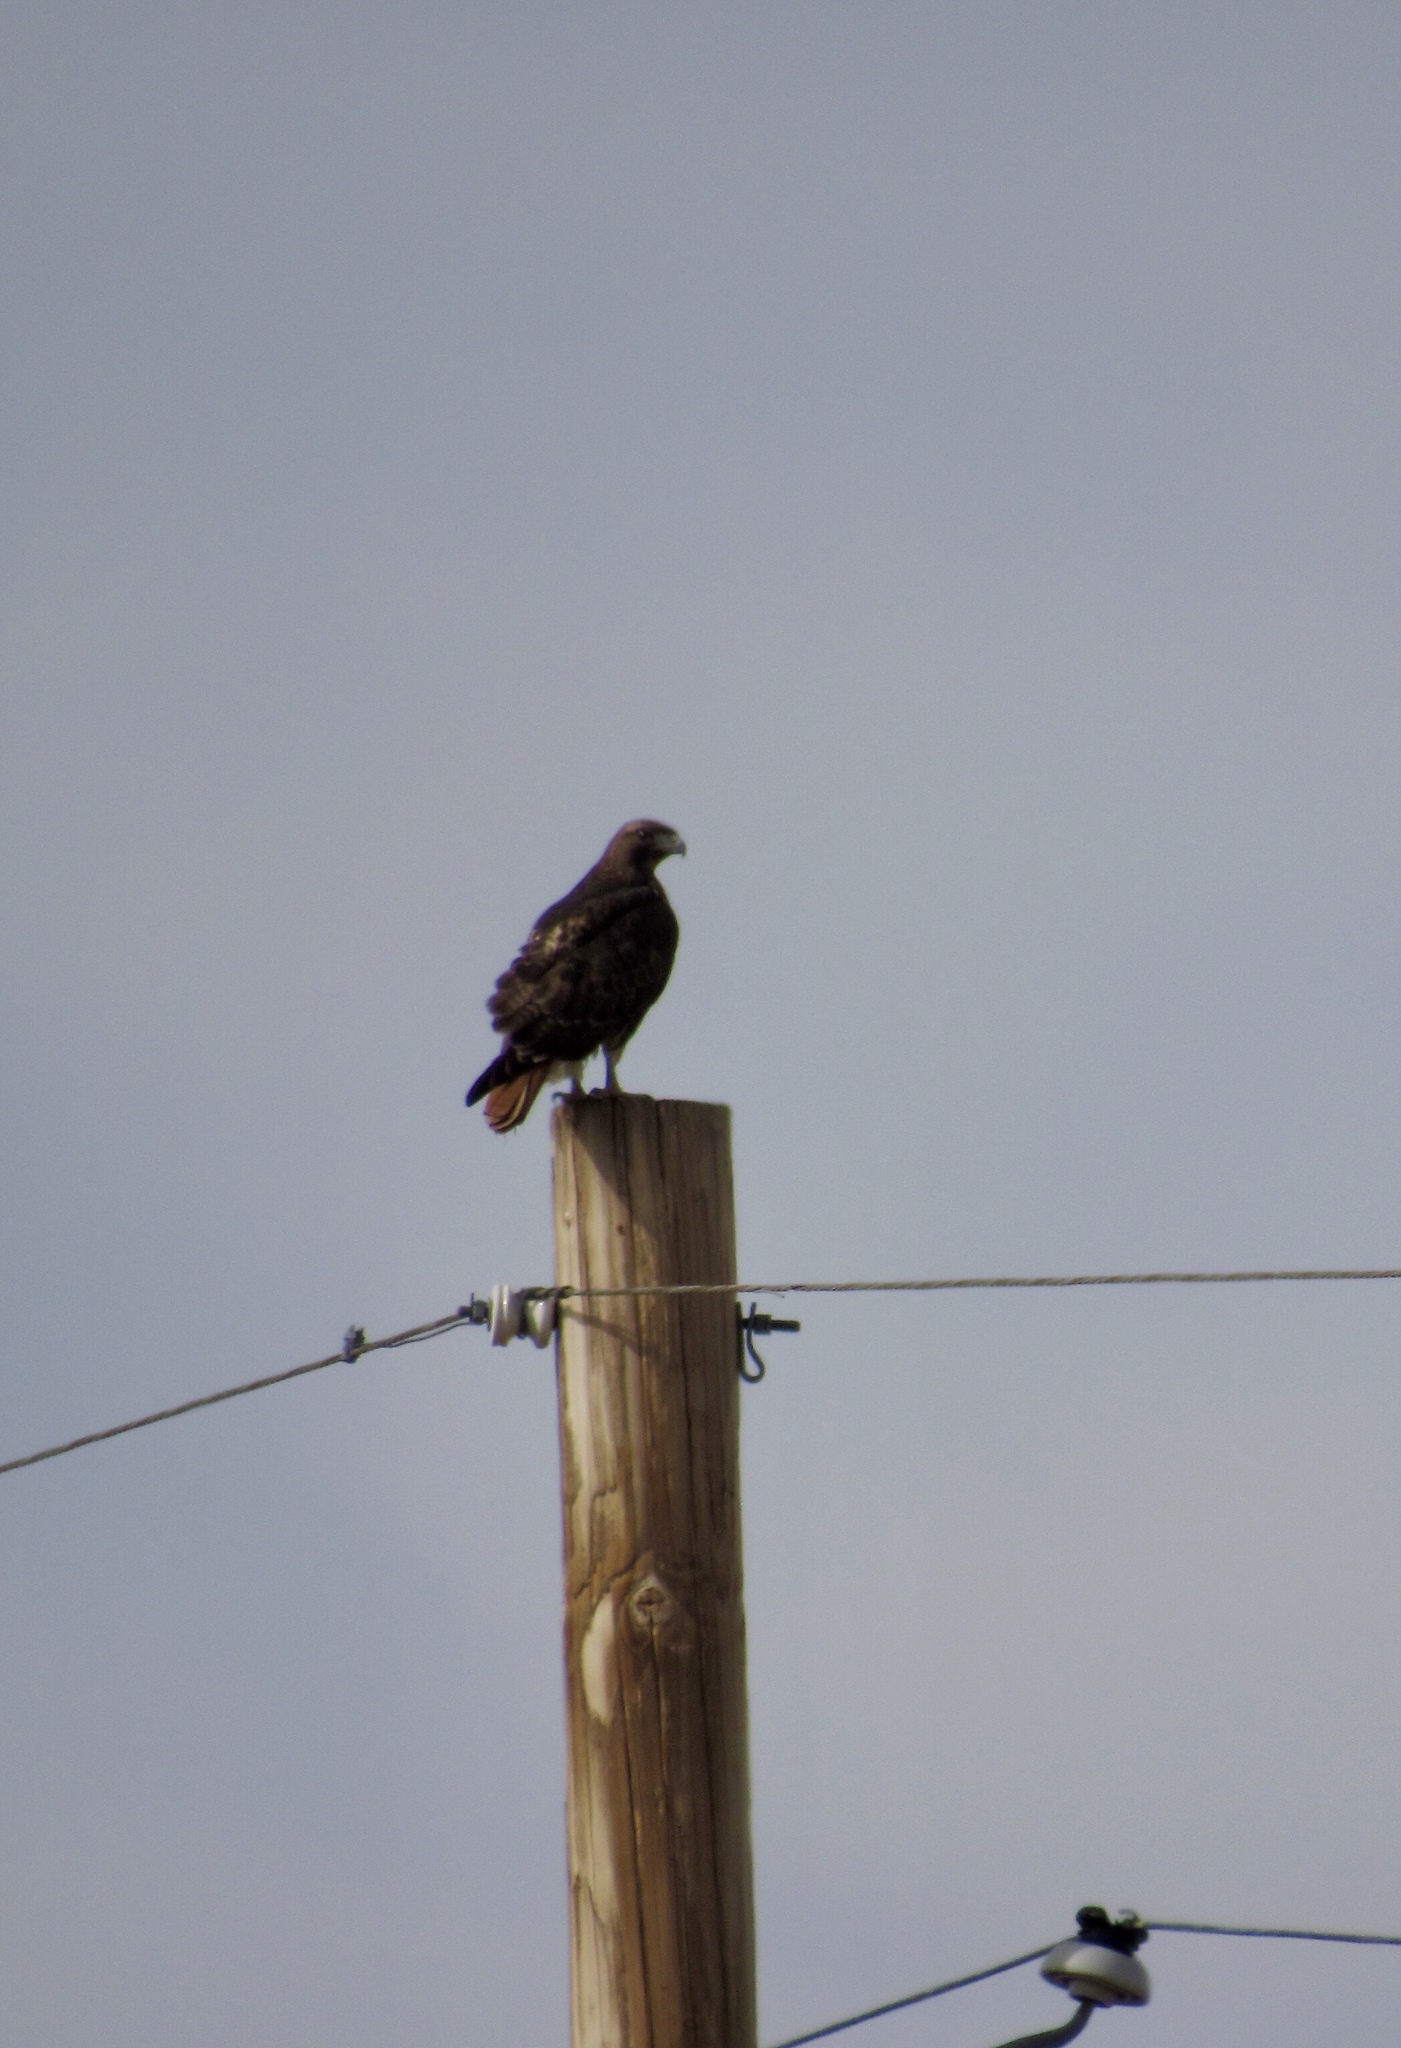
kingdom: Animalia
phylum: Chordata
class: Aves
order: Accipitriformes
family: Accipitridae
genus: Buteo
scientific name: Buteo jamaicensis
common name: Red-tailed hawk
